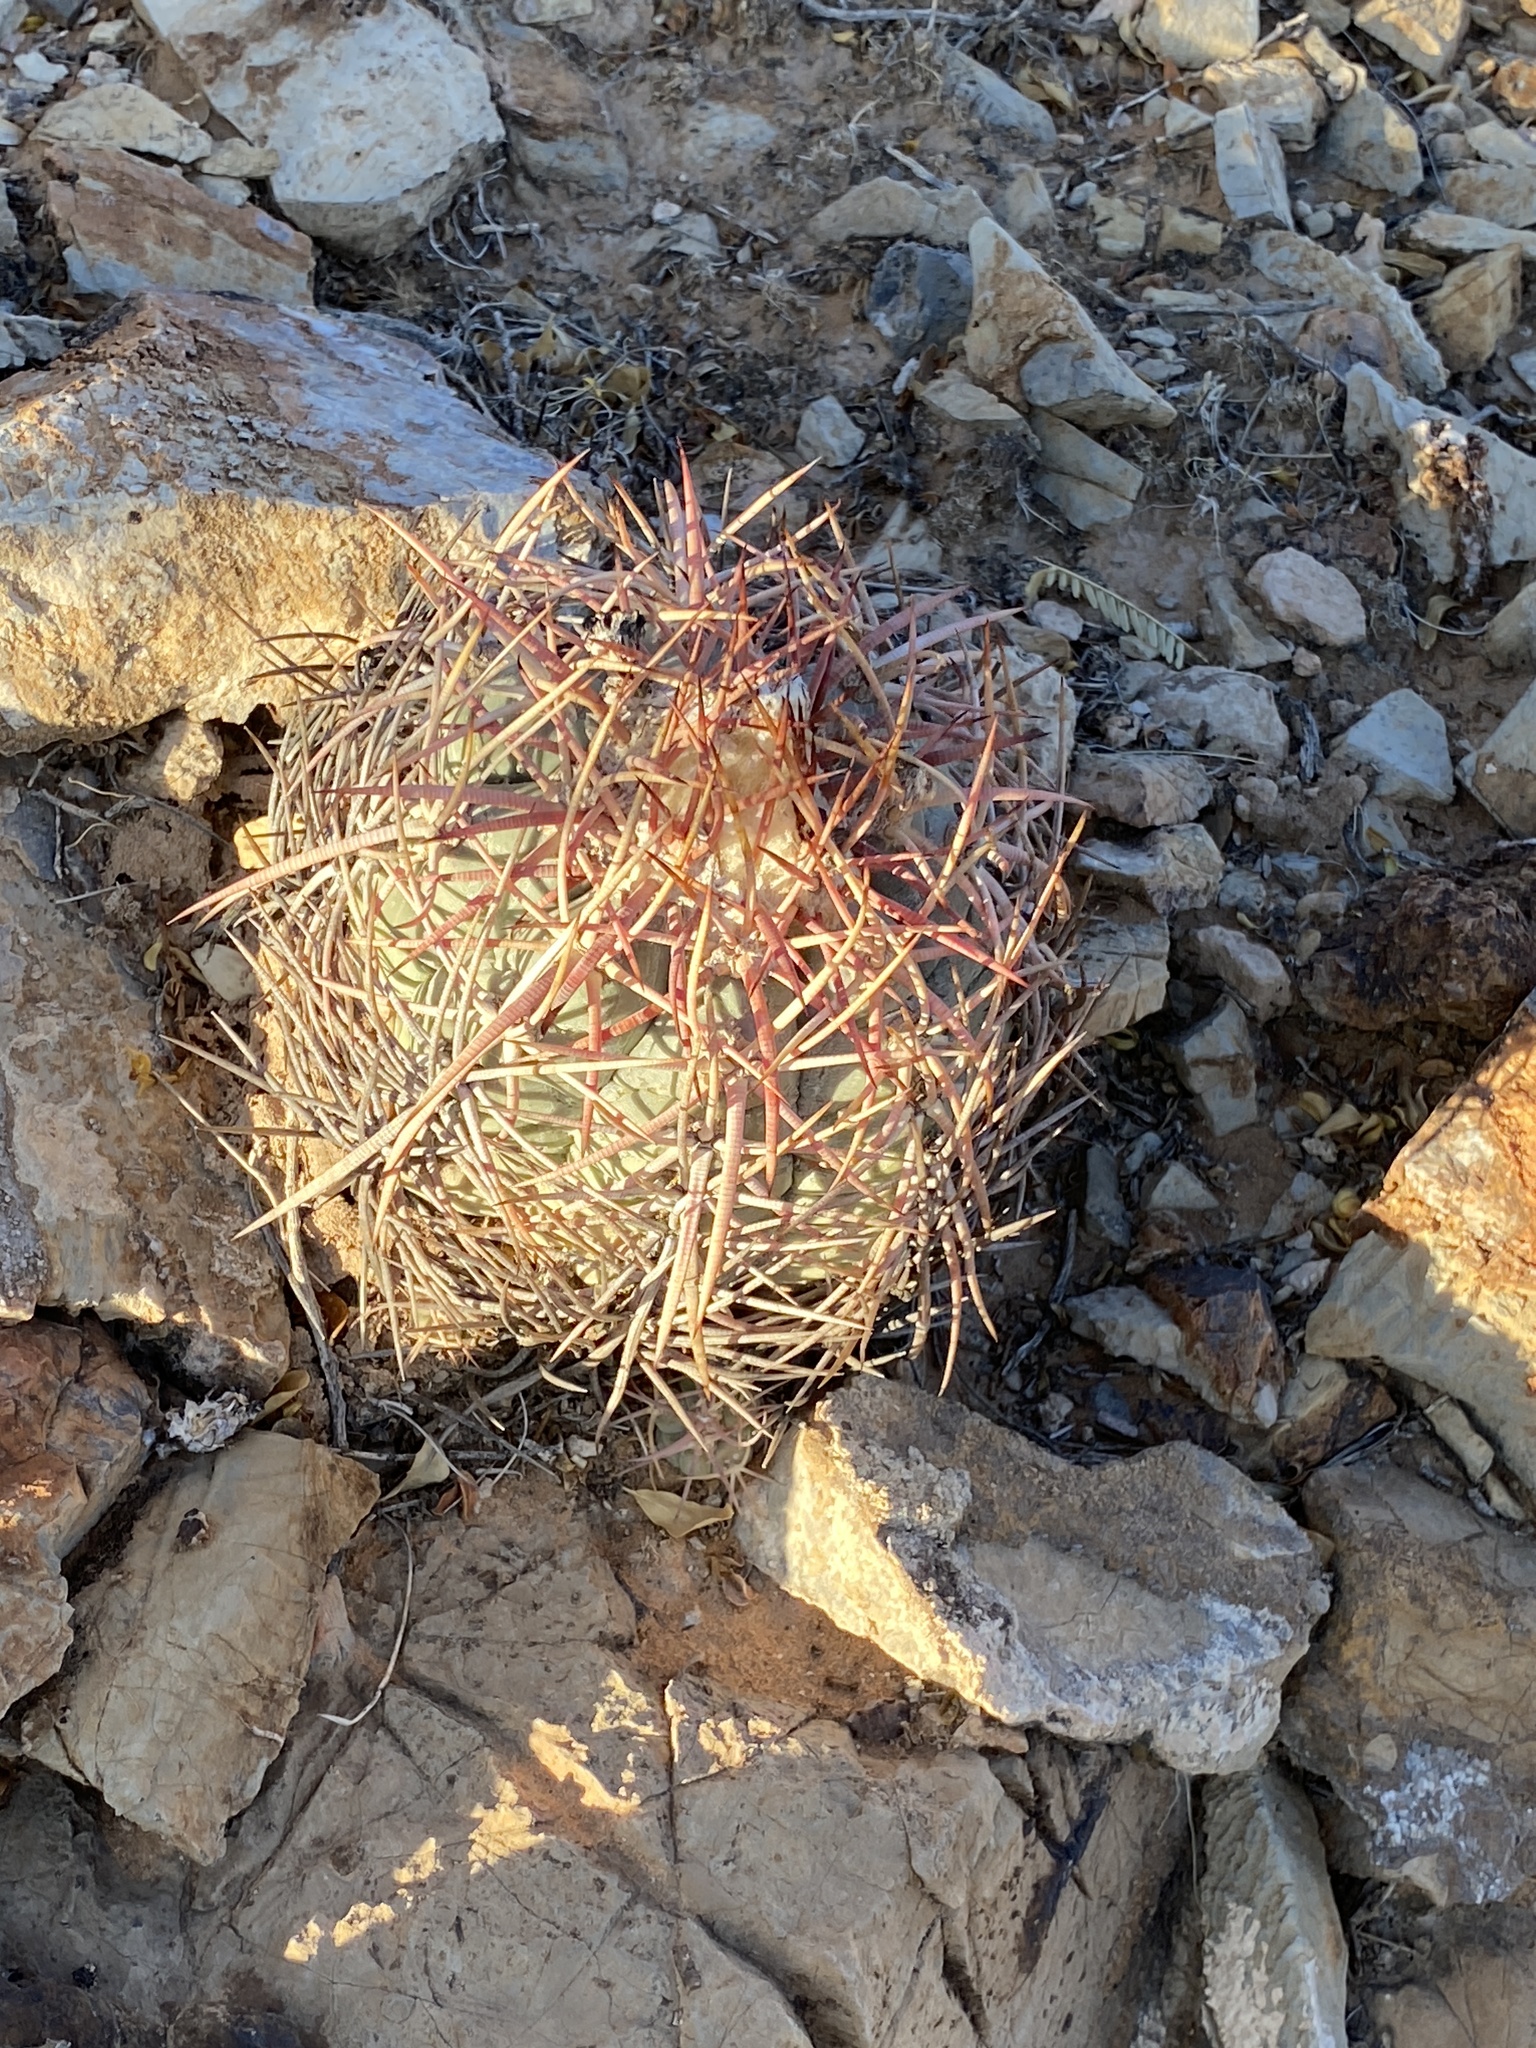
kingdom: Plantae
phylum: Tracheophyta
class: Magnoliopsida
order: Caryophyllales
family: Cactaceae
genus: Echinocactus
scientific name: Echinocactus horizonthalonius
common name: Devilshead
